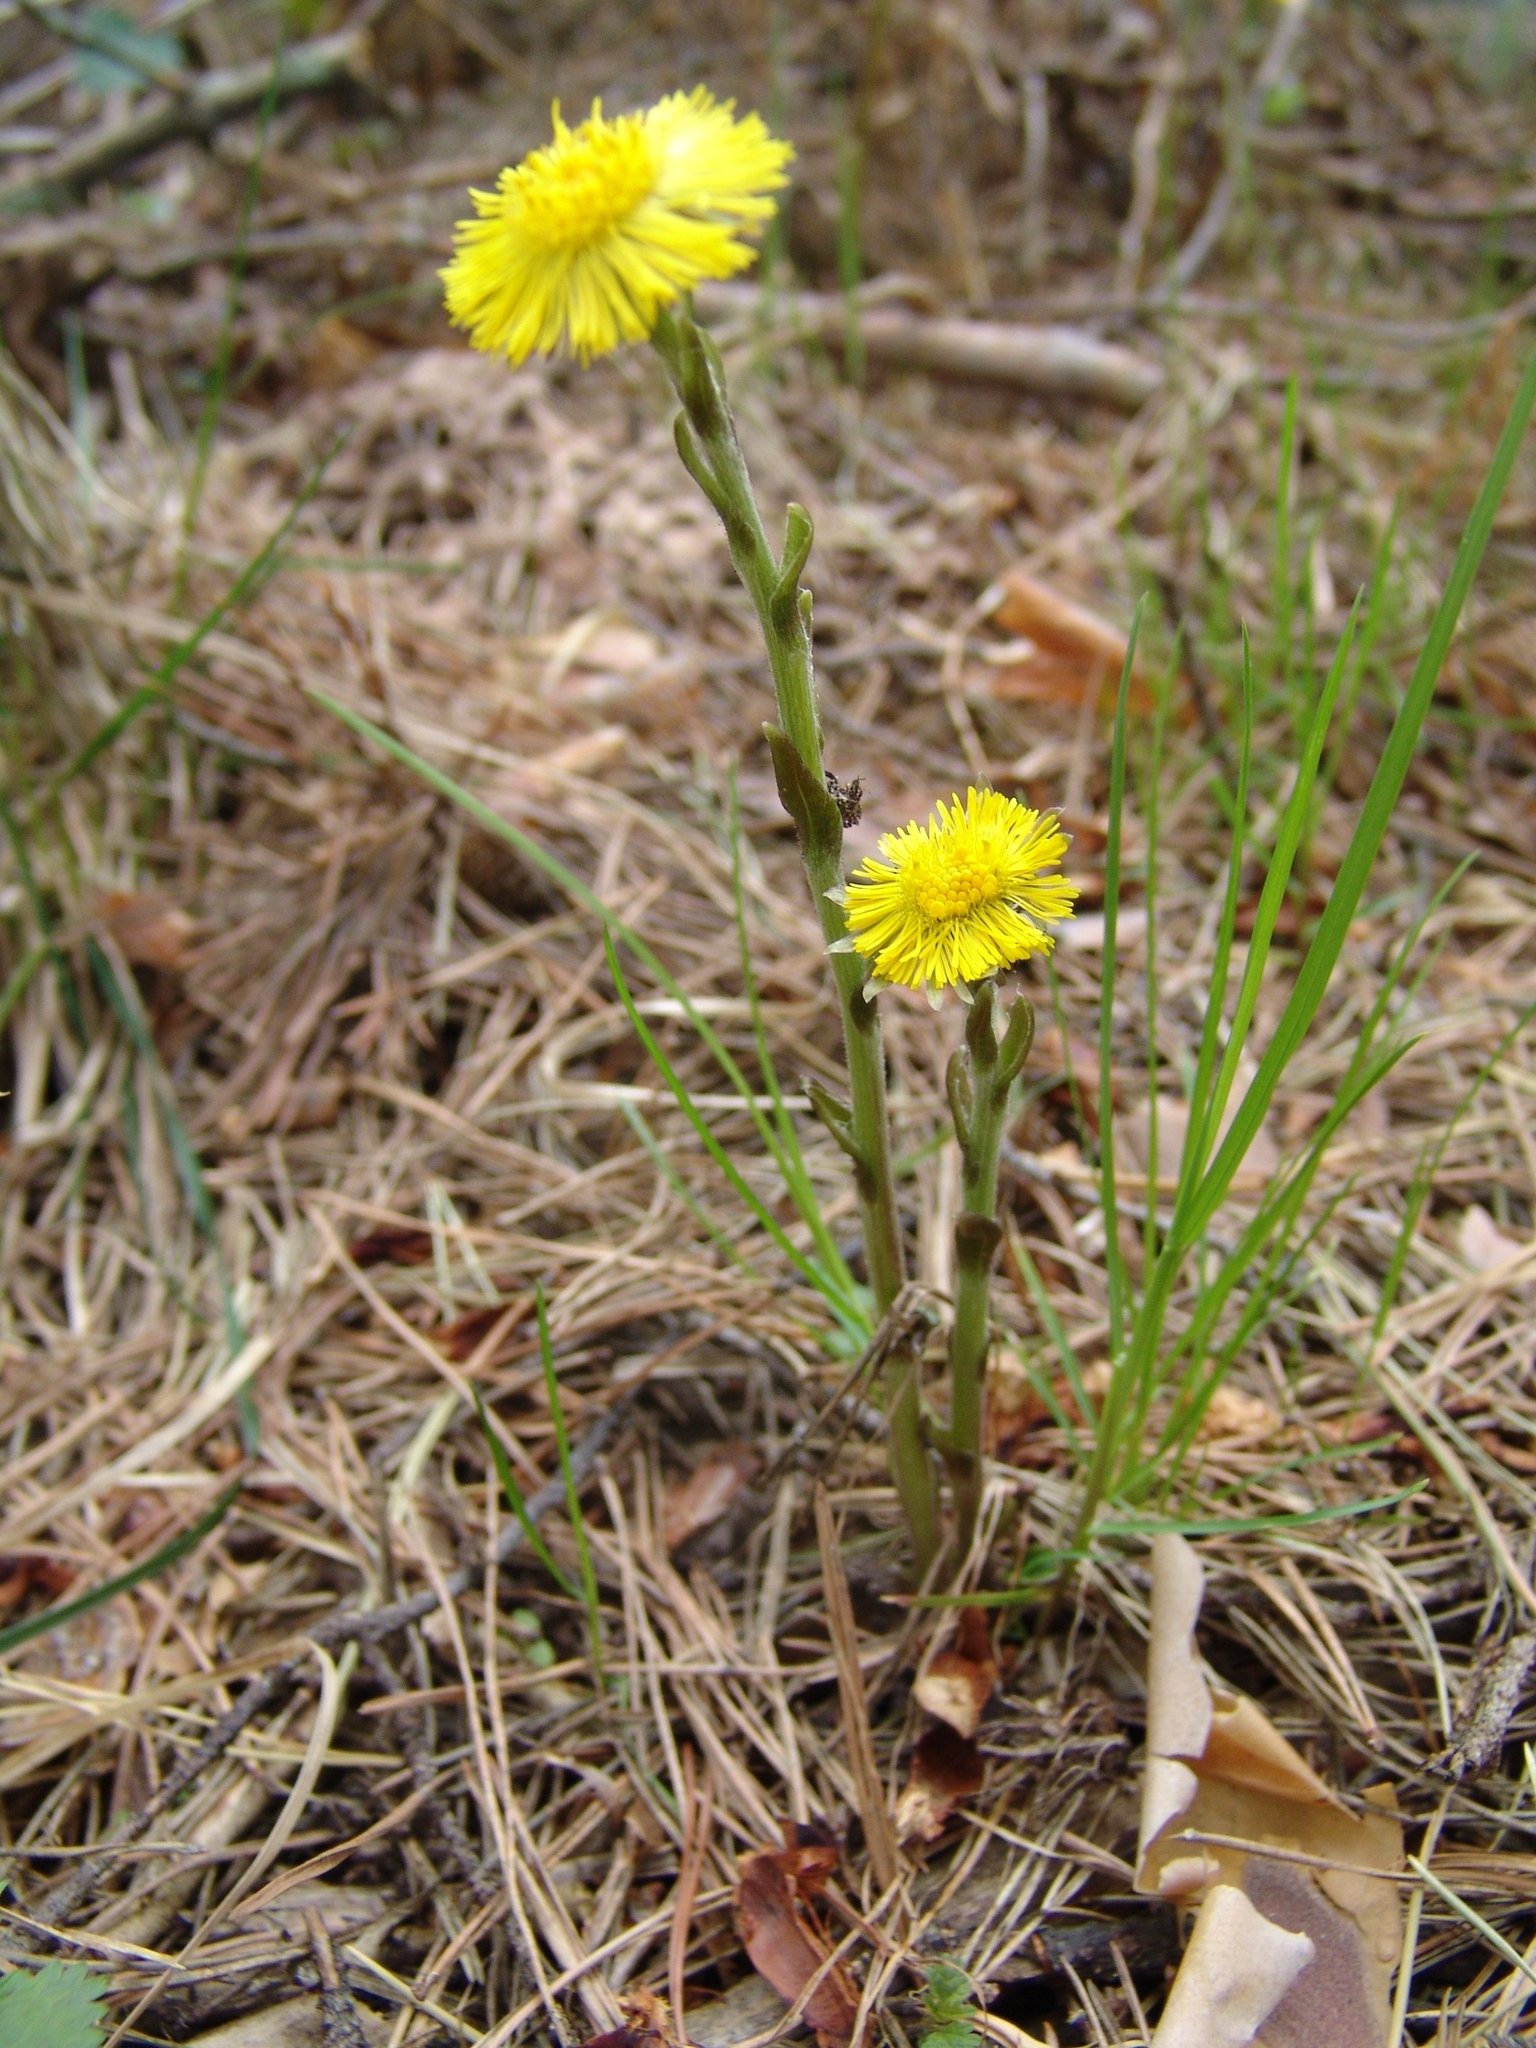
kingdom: Plantae
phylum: Tracheophyta
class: Magnoliopsida
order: Asterales
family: Asteraceae
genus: Tussilago
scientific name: Tussilago farfara
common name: Coltsfoot
